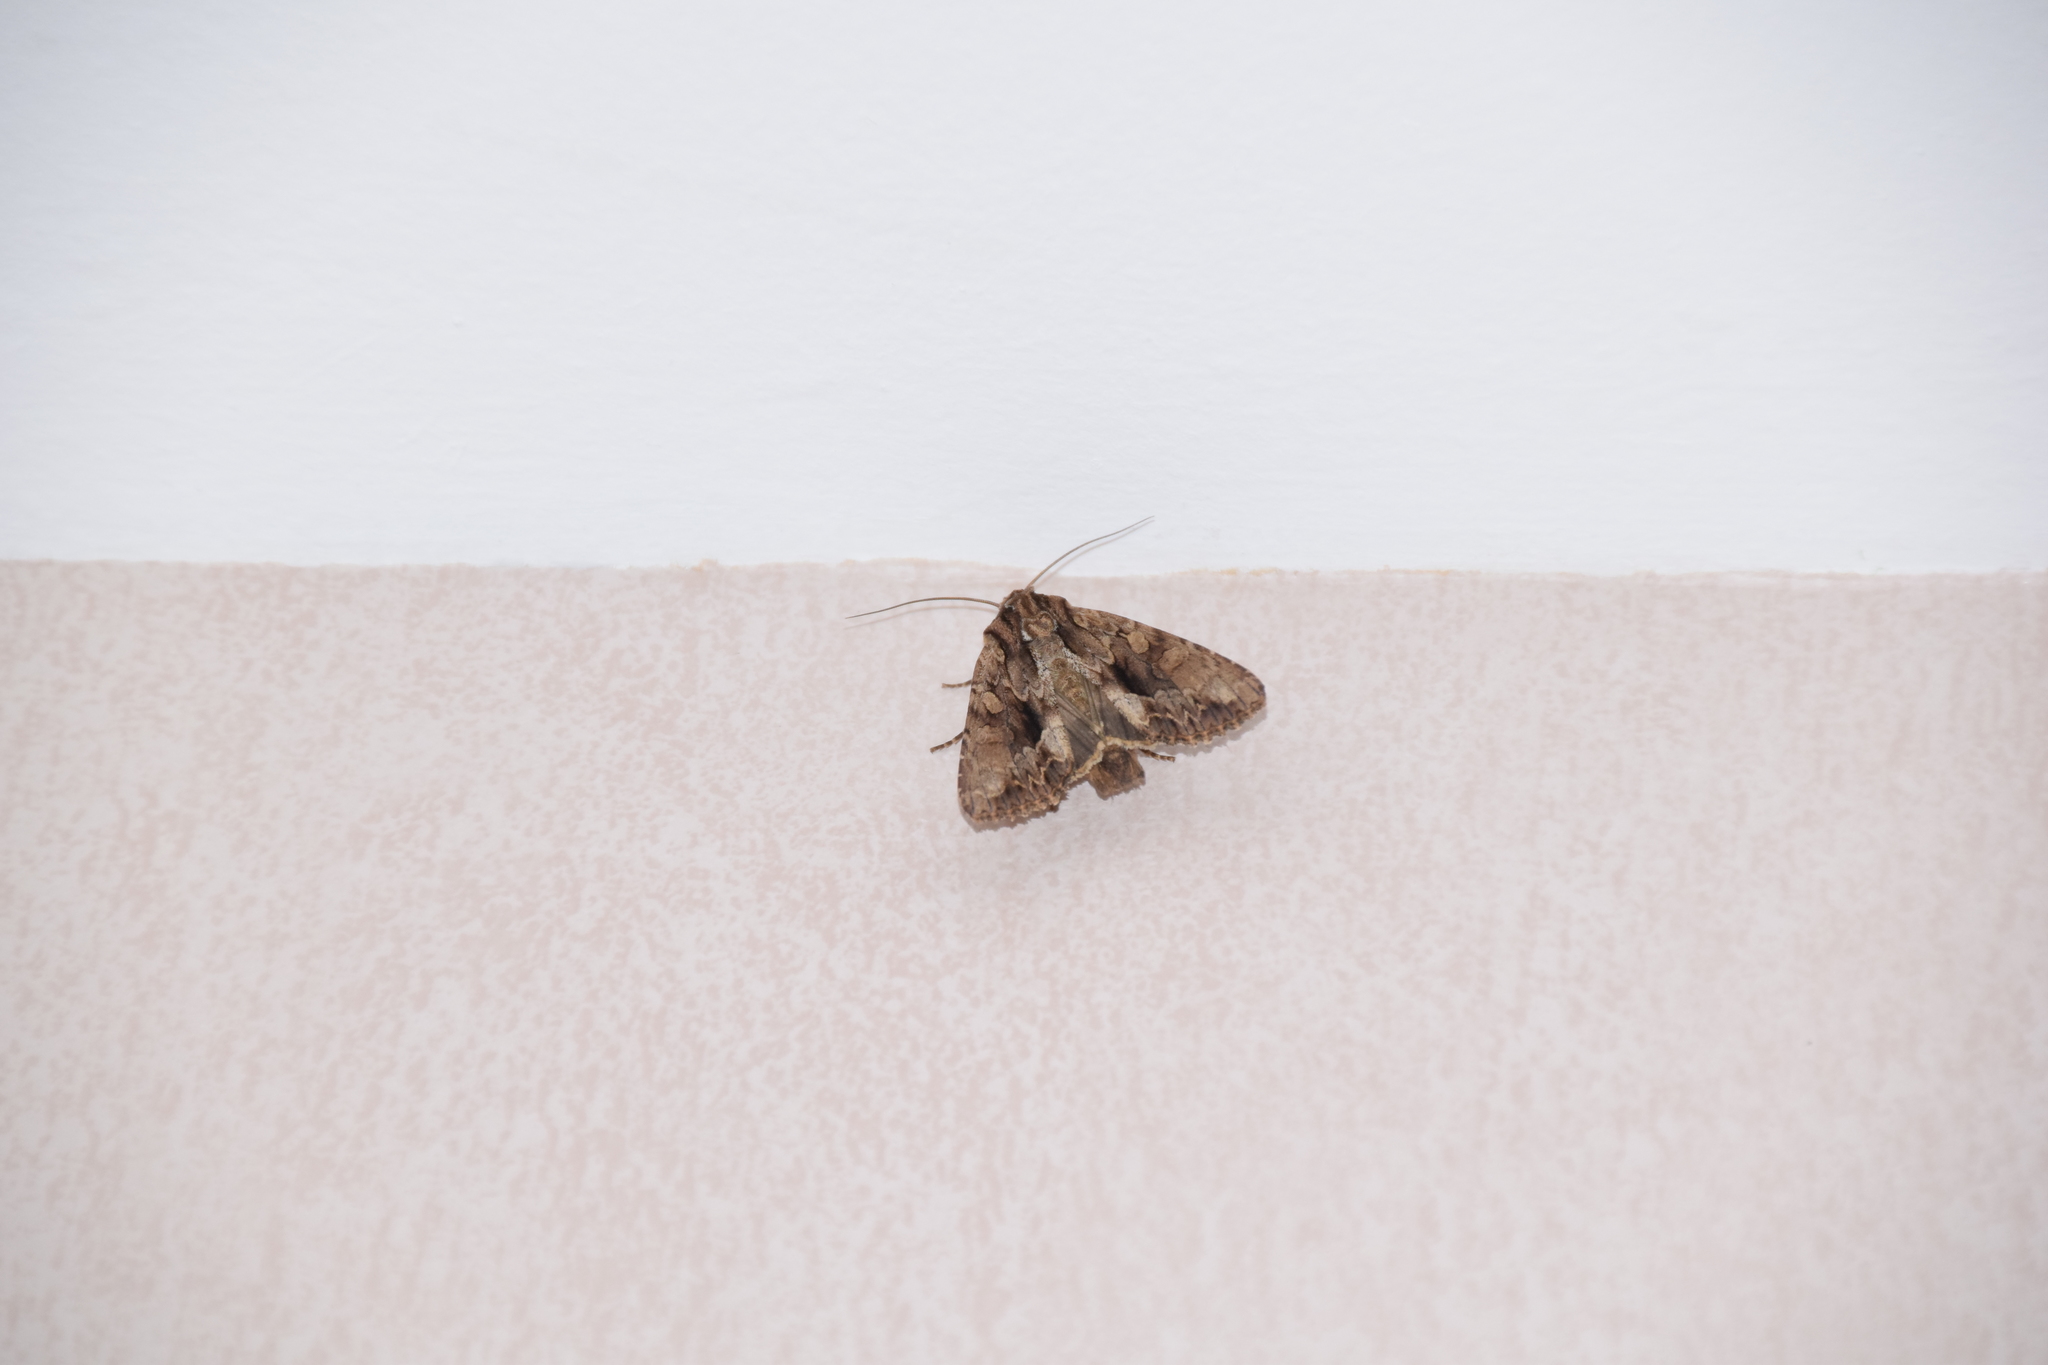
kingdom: Animalia
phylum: Arthropoda
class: Insecta
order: Lepidoptera
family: Noctuidae
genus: Apamea
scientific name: Apamea monoglypha
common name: Dark arches
